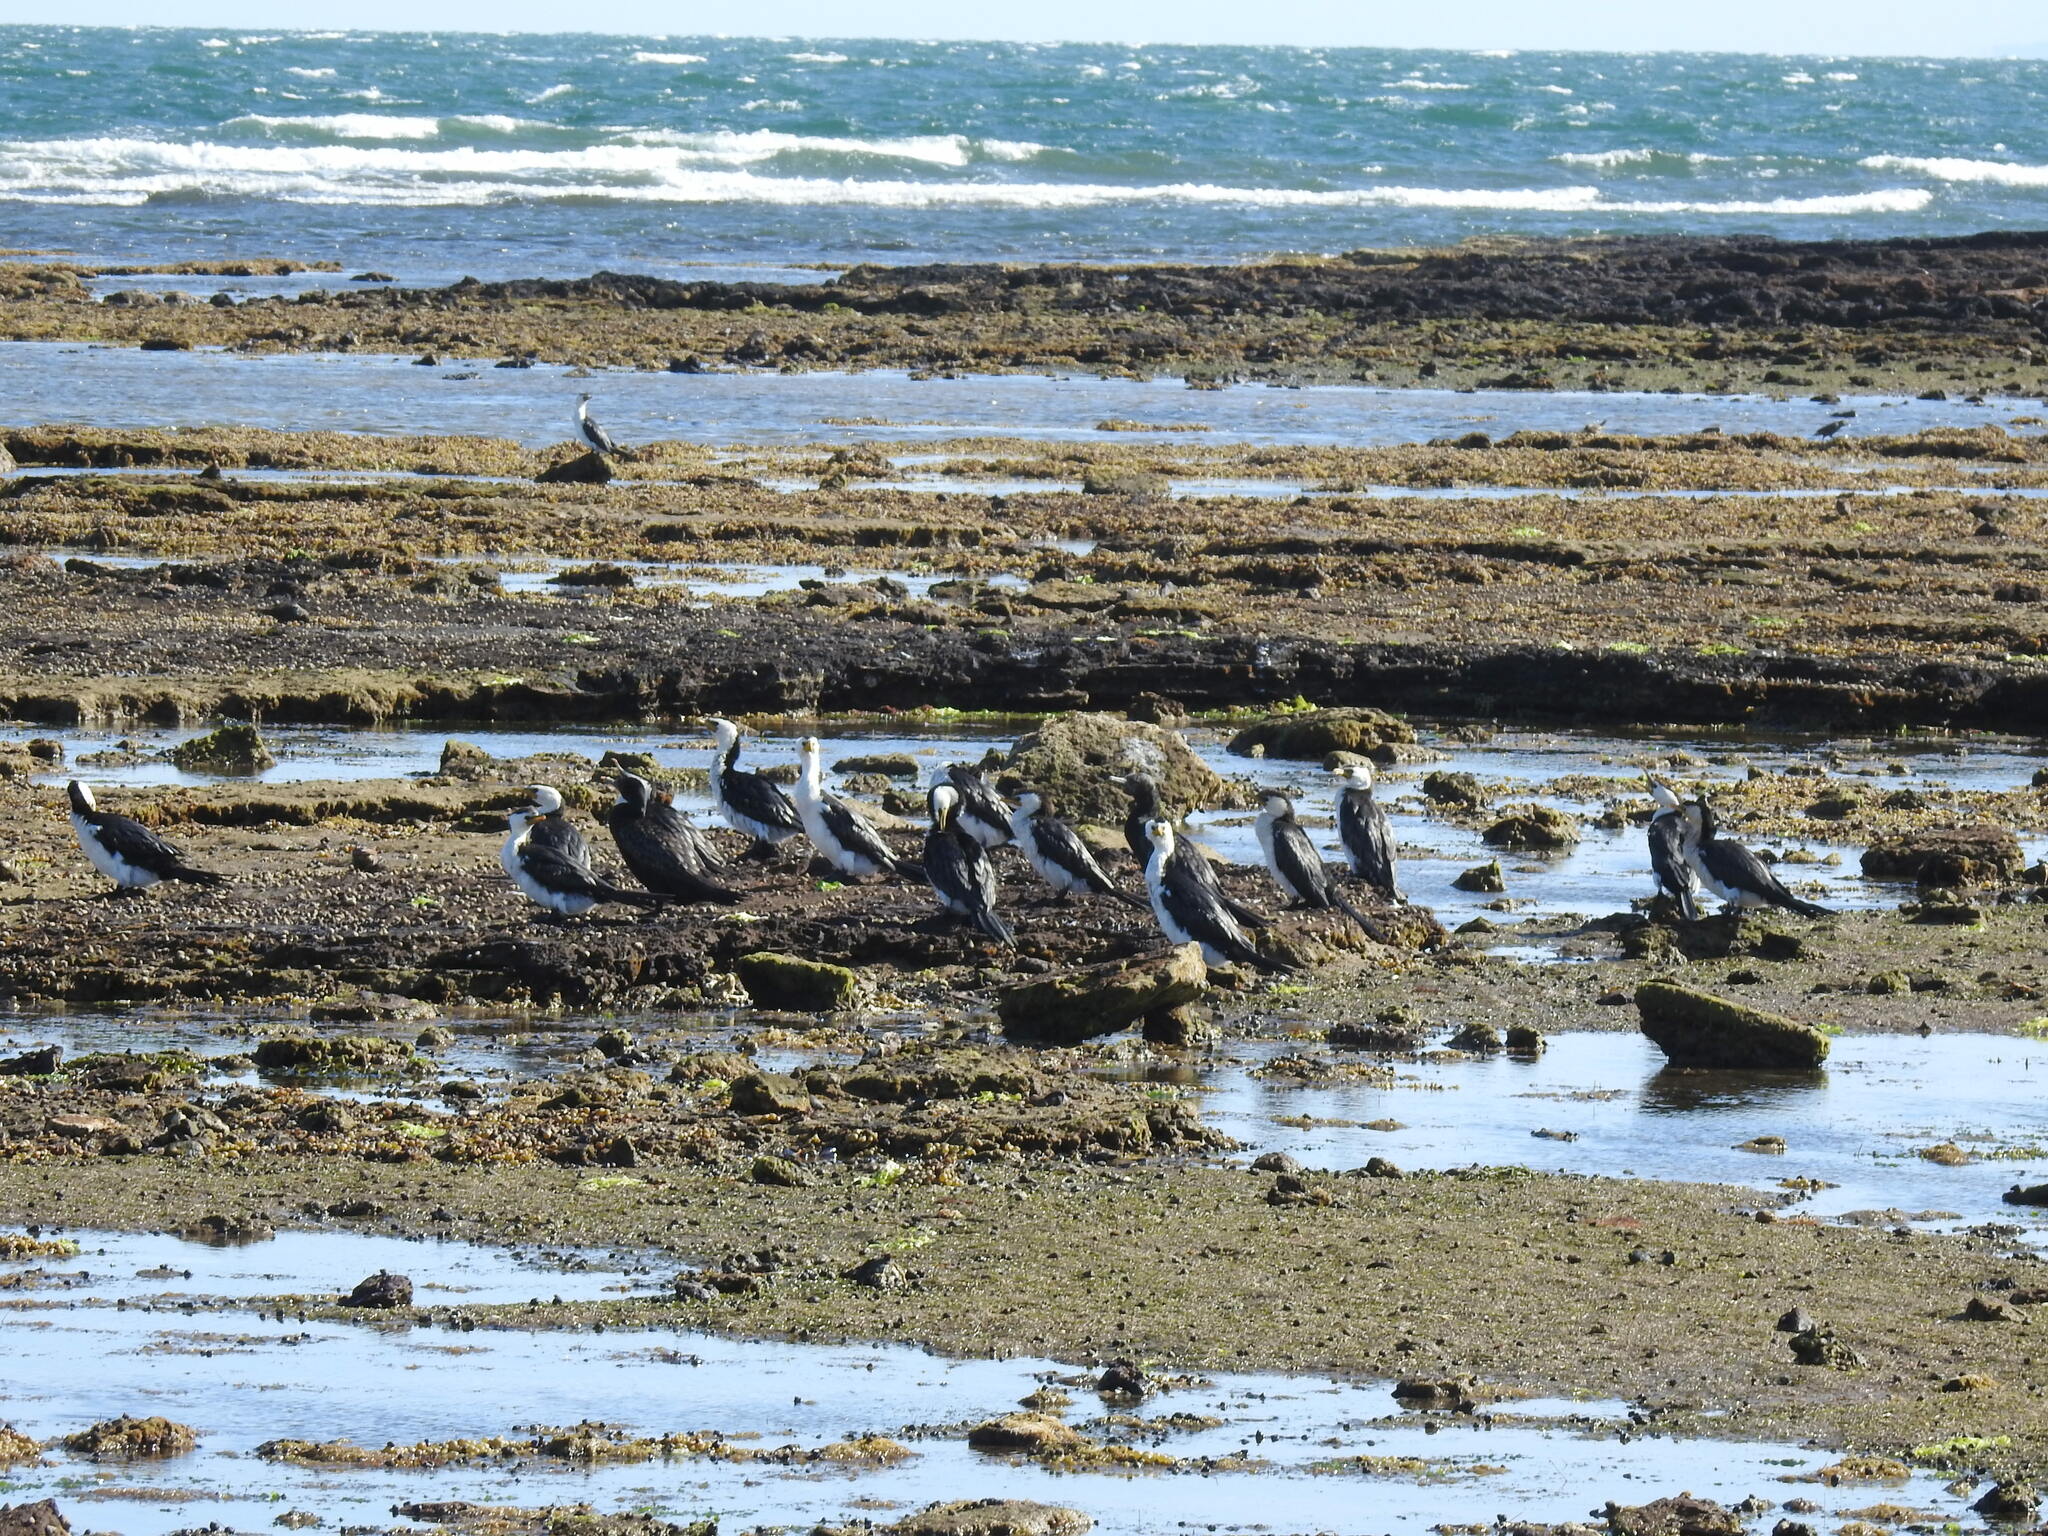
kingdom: Animalia
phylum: Chordata
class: Aves
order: Suliformes
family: Phalacrocoracidae
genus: Microcarbo
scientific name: Microcarbo melanoleucos
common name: Little pied cormorant
